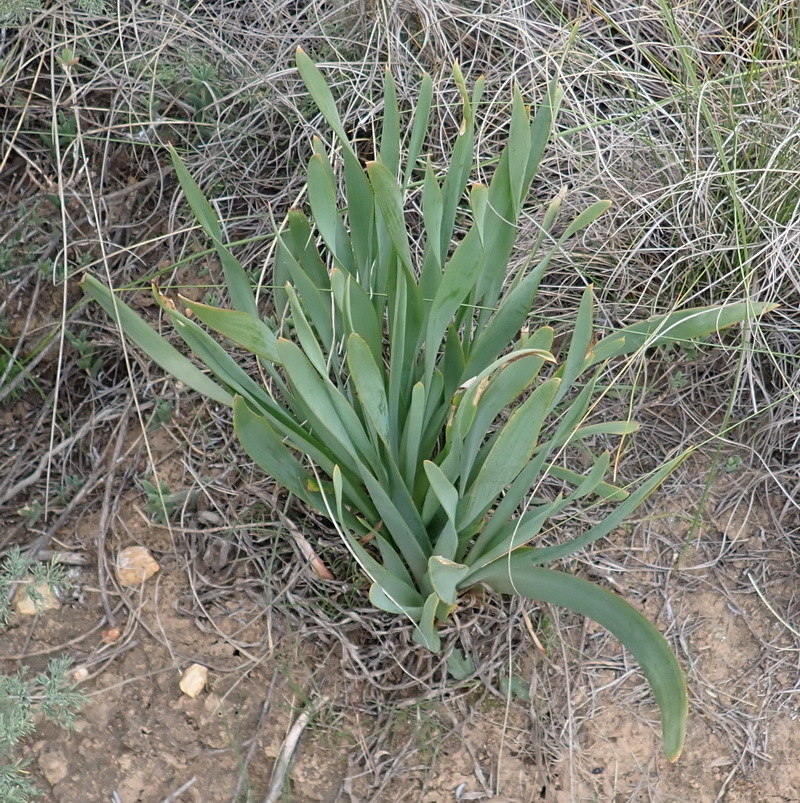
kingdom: Plantae
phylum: Tracheophyta
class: Liliopsida
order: Asparagales
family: Asphodelaceae
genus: Bulbine
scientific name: Bulbine narcissifolia
